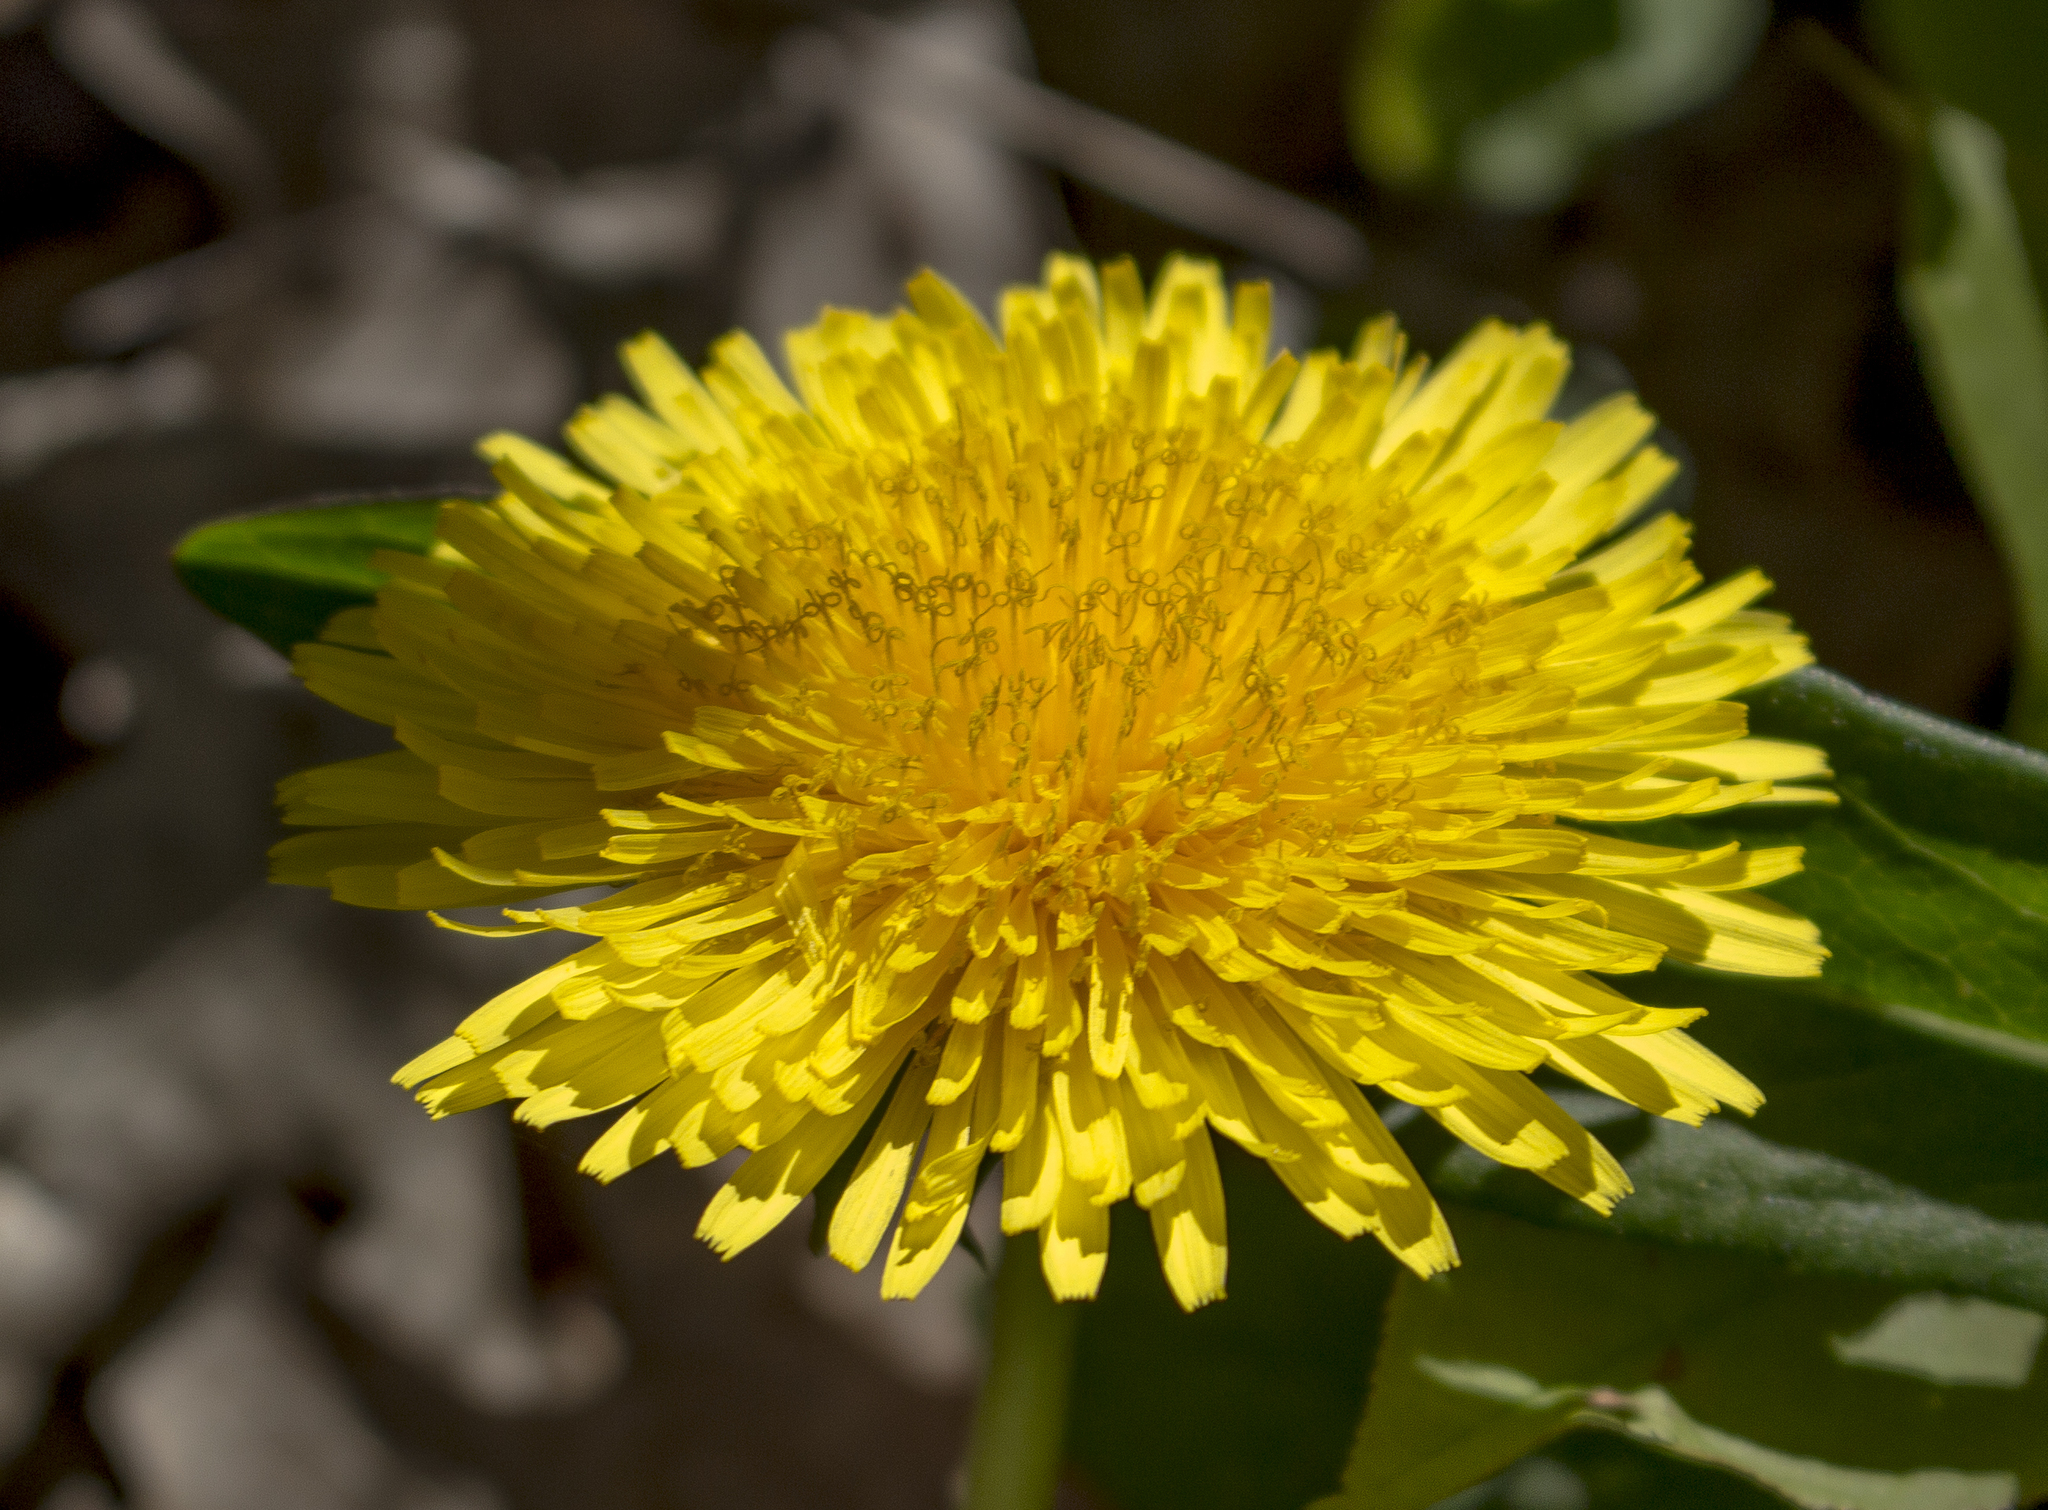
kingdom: Plantae
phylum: Tracheophyta
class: Magnoliopsida
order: Asterales
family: Asteraceae
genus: Taraxacum
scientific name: Taraxacum officinale
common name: Common dandelion
